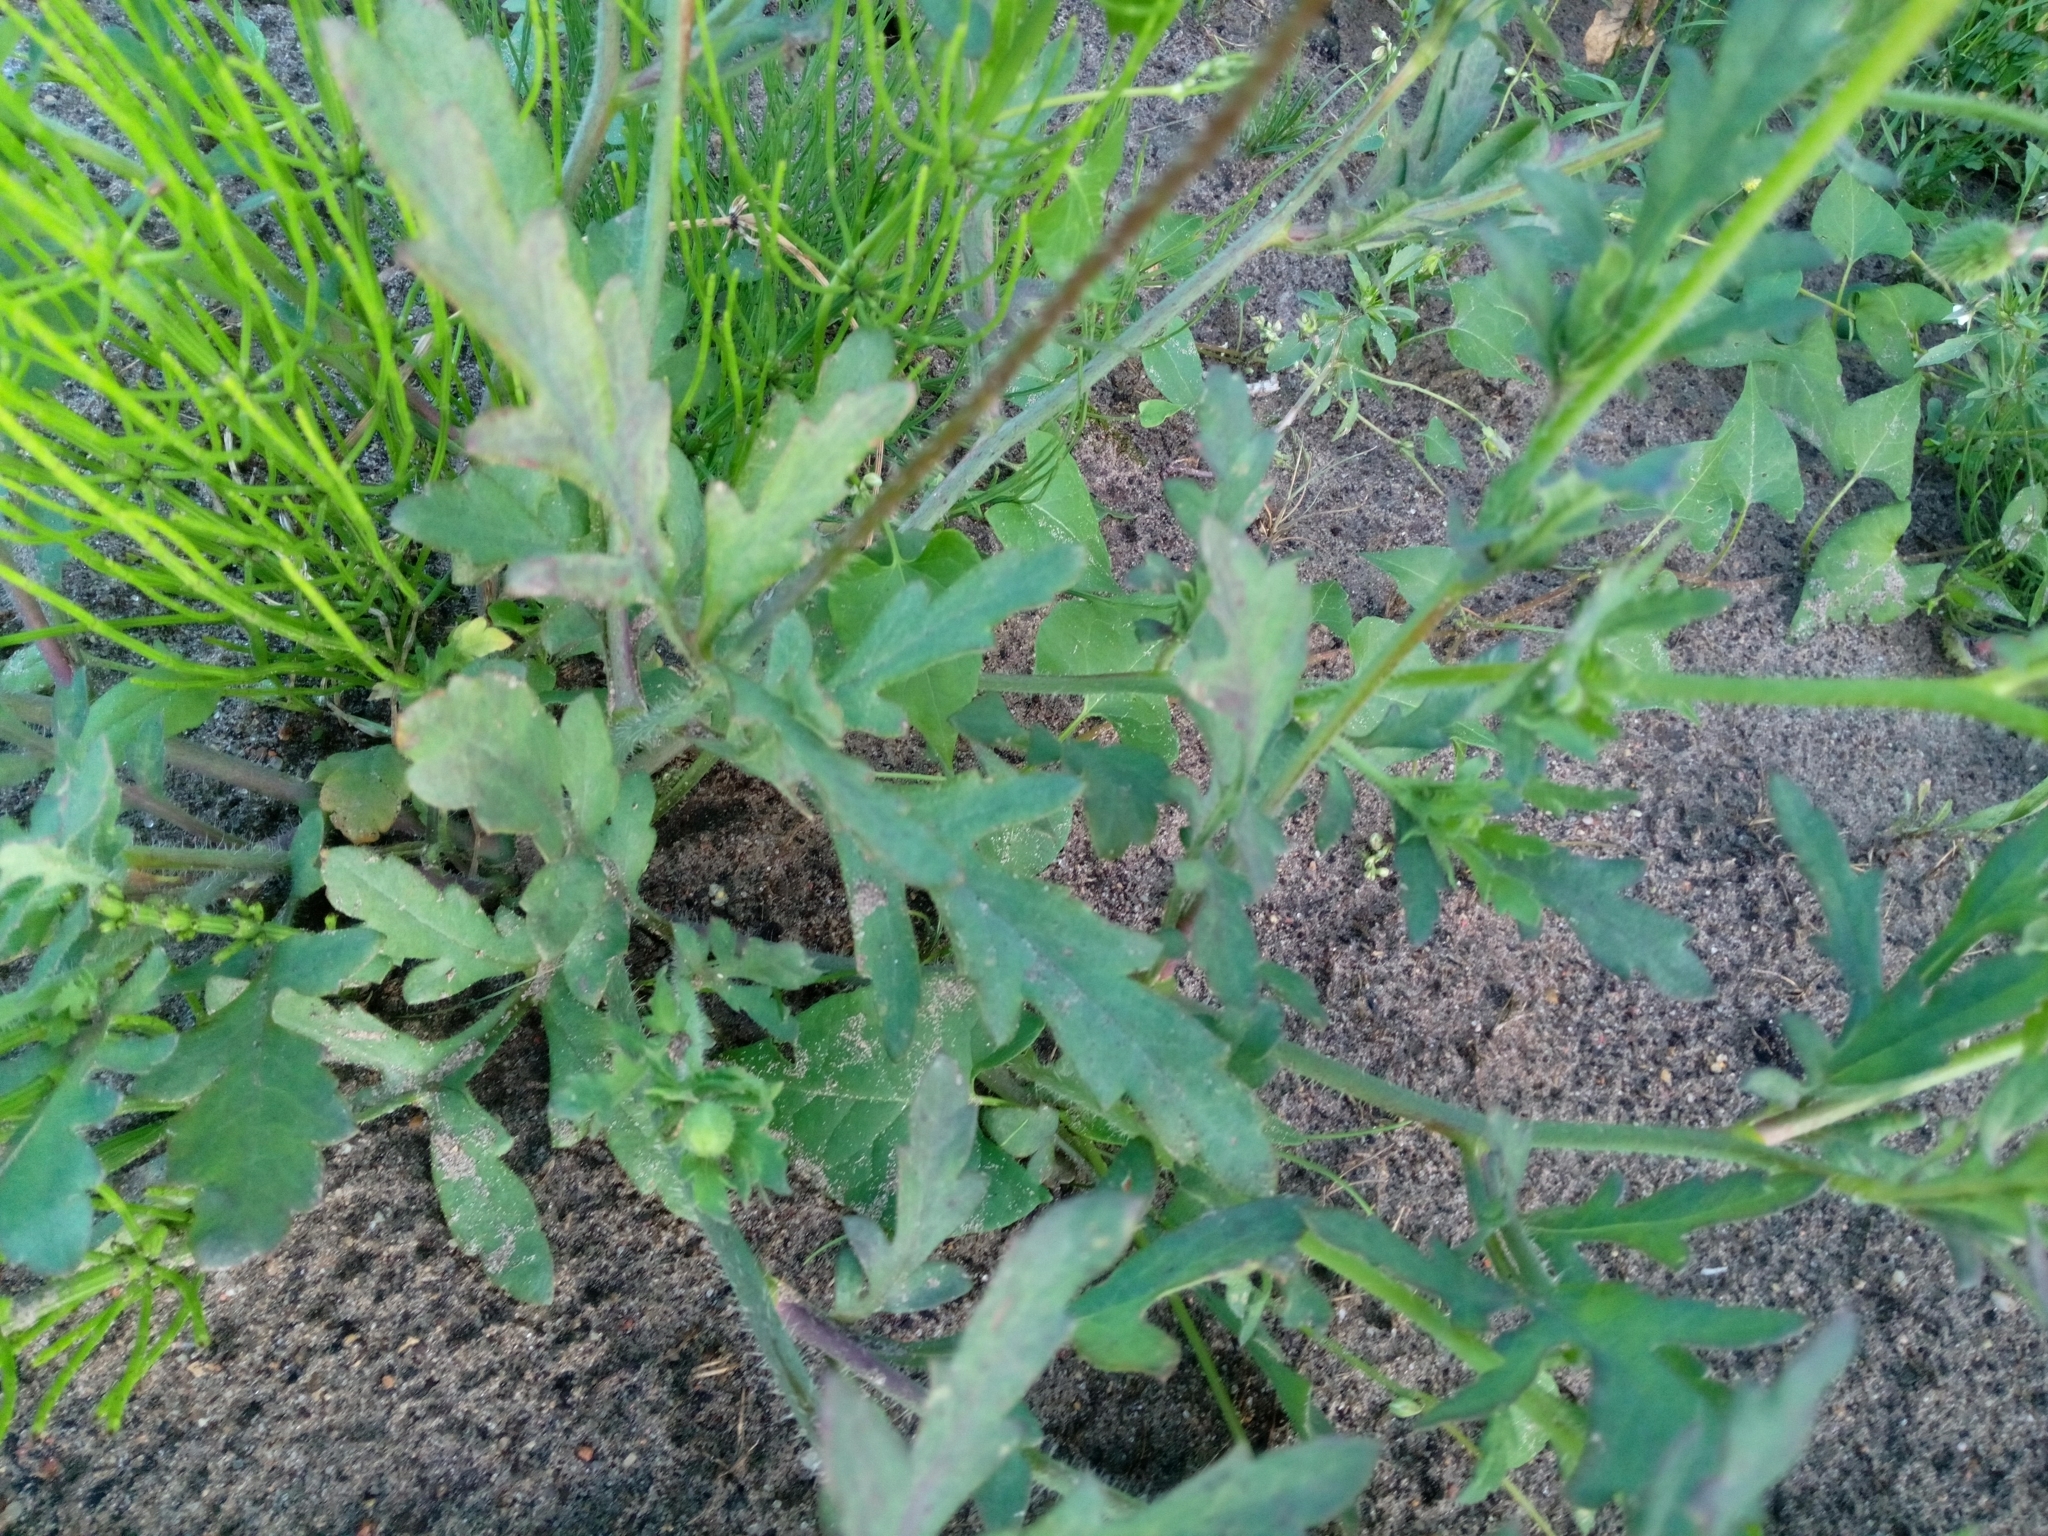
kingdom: Plantae
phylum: Tracheophyta
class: Magnoliopsida
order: Ranunculales
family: Papaveraceae
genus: Papaver
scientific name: Papaver rhoeas
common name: Corn poppy
